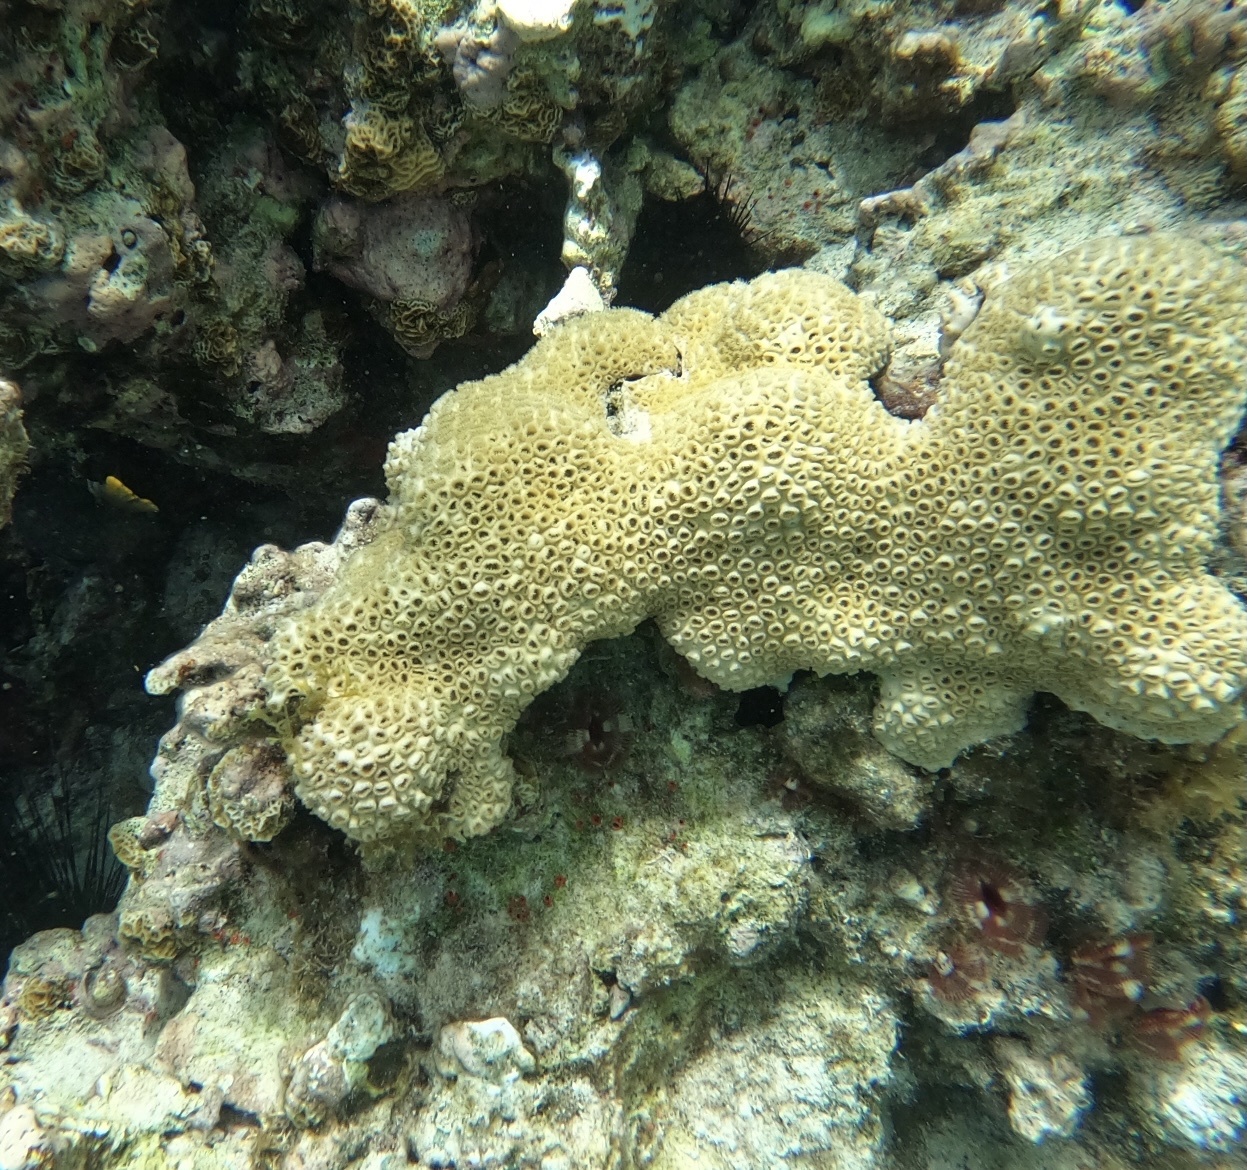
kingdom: Animalia
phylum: Cnidaria
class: Anthozoa
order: Zoantharia
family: Sphenopidae
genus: Palythoa
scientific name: Palythoa caribaeorum
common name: Encrusting colonial anemone
